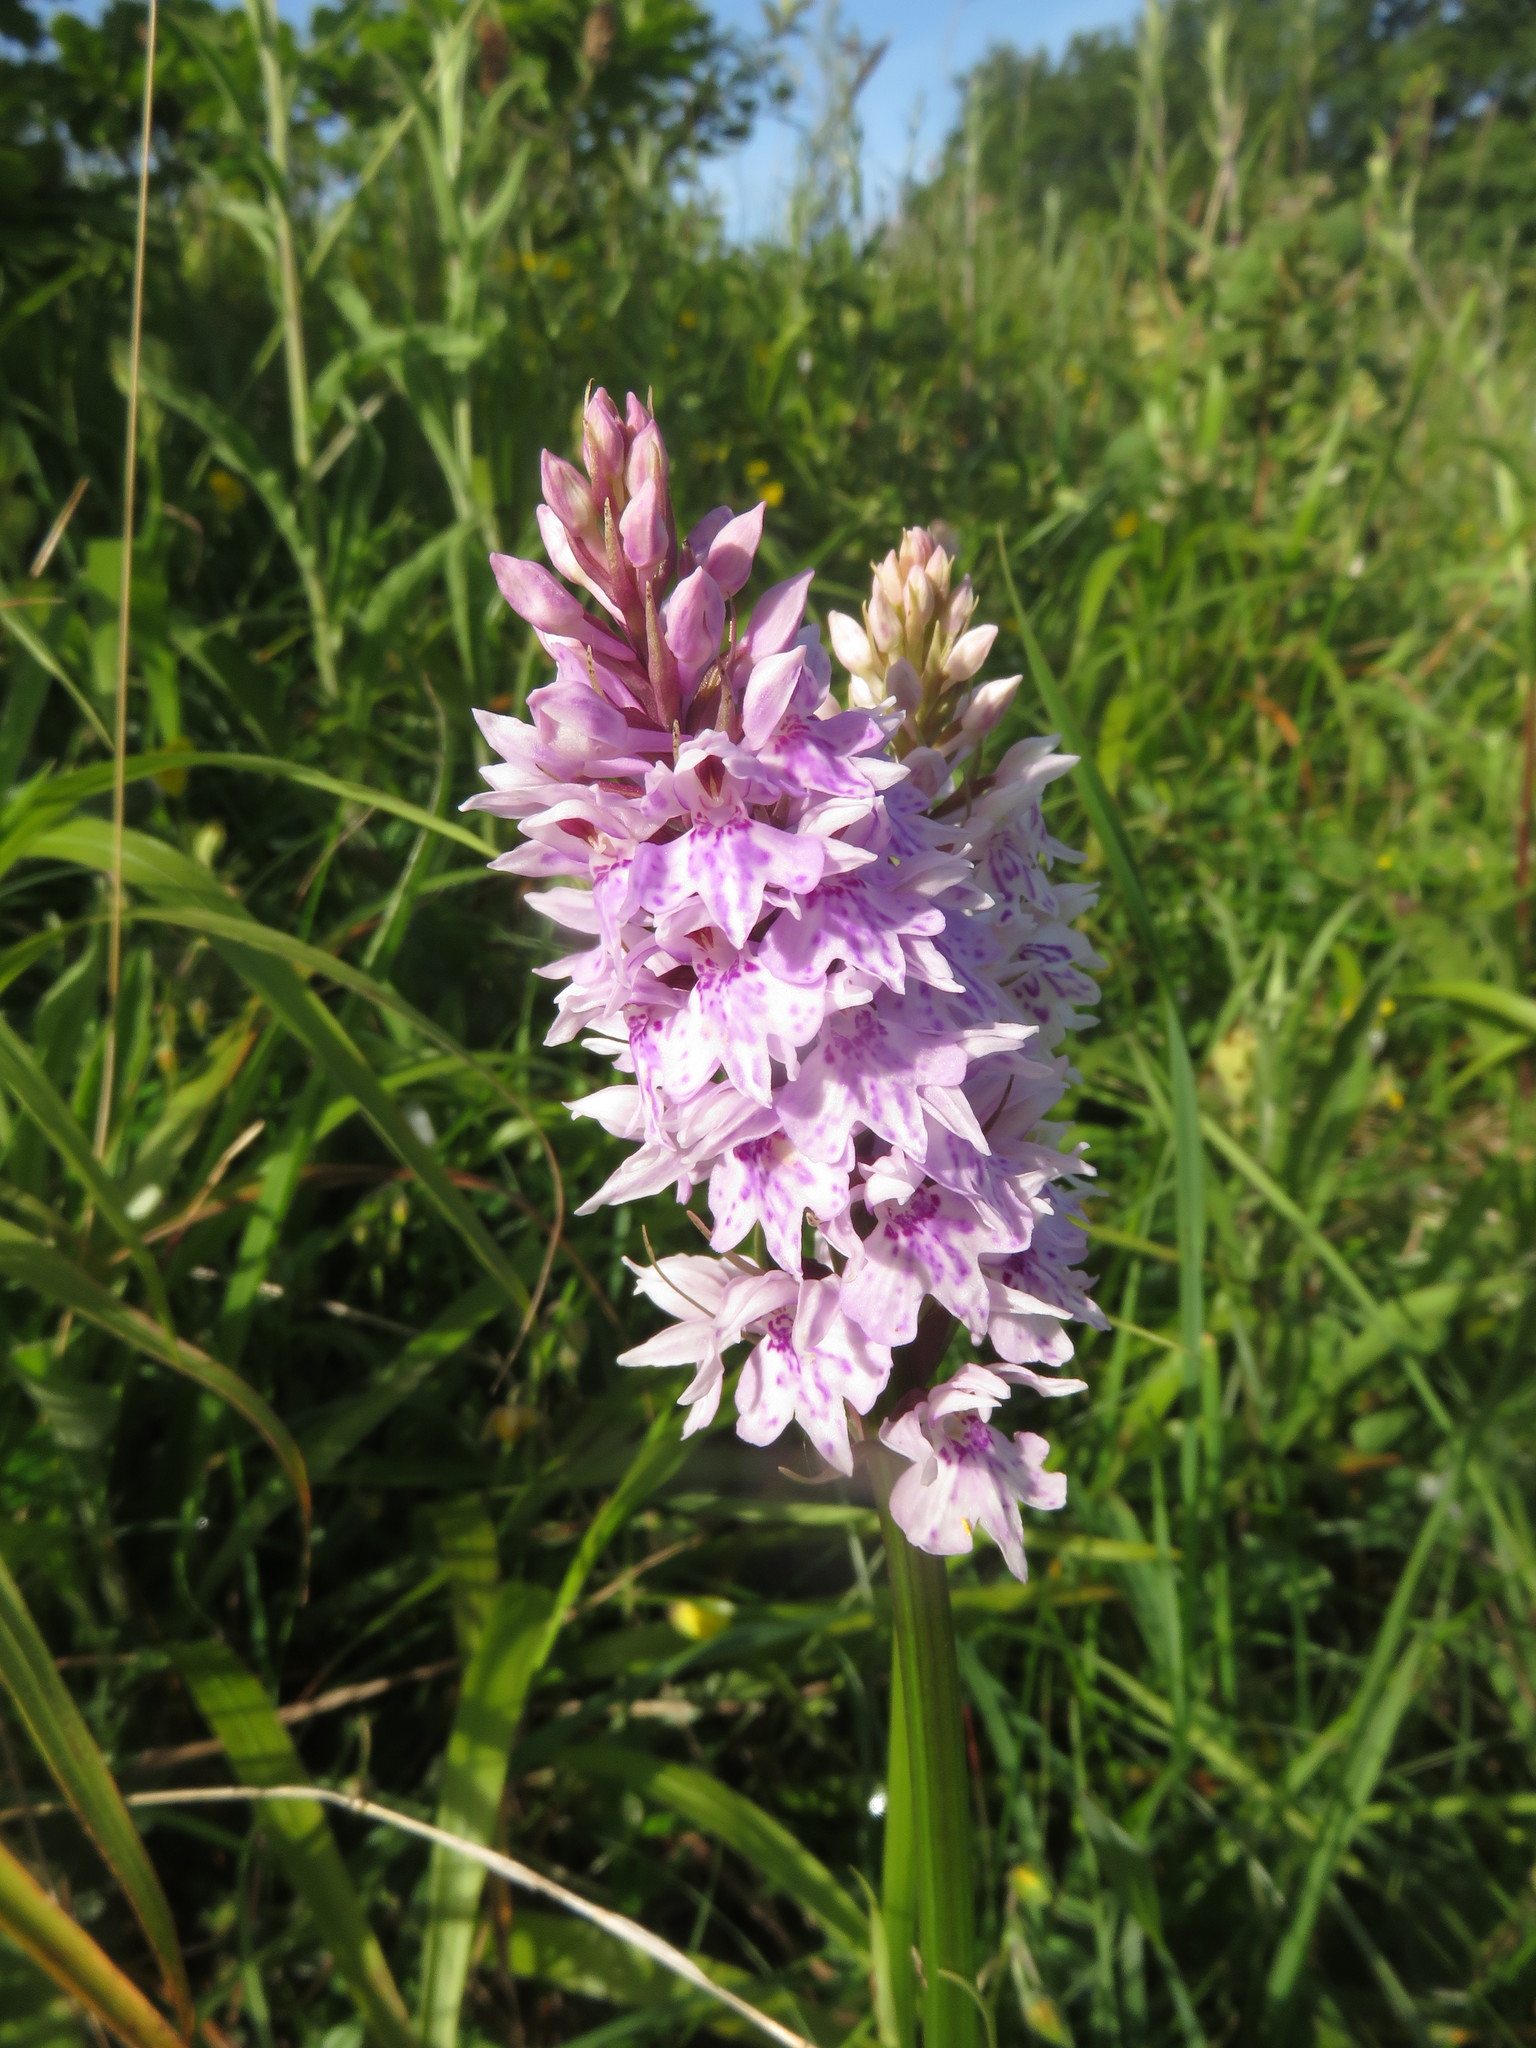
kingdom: Plantae
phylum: Tracheophyta
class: Liliopsida
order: Asparagales
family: Orchidaceae
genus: Dactylorhiza
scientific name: Dactylorhiza maculata
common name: Heath spotted-orchid
